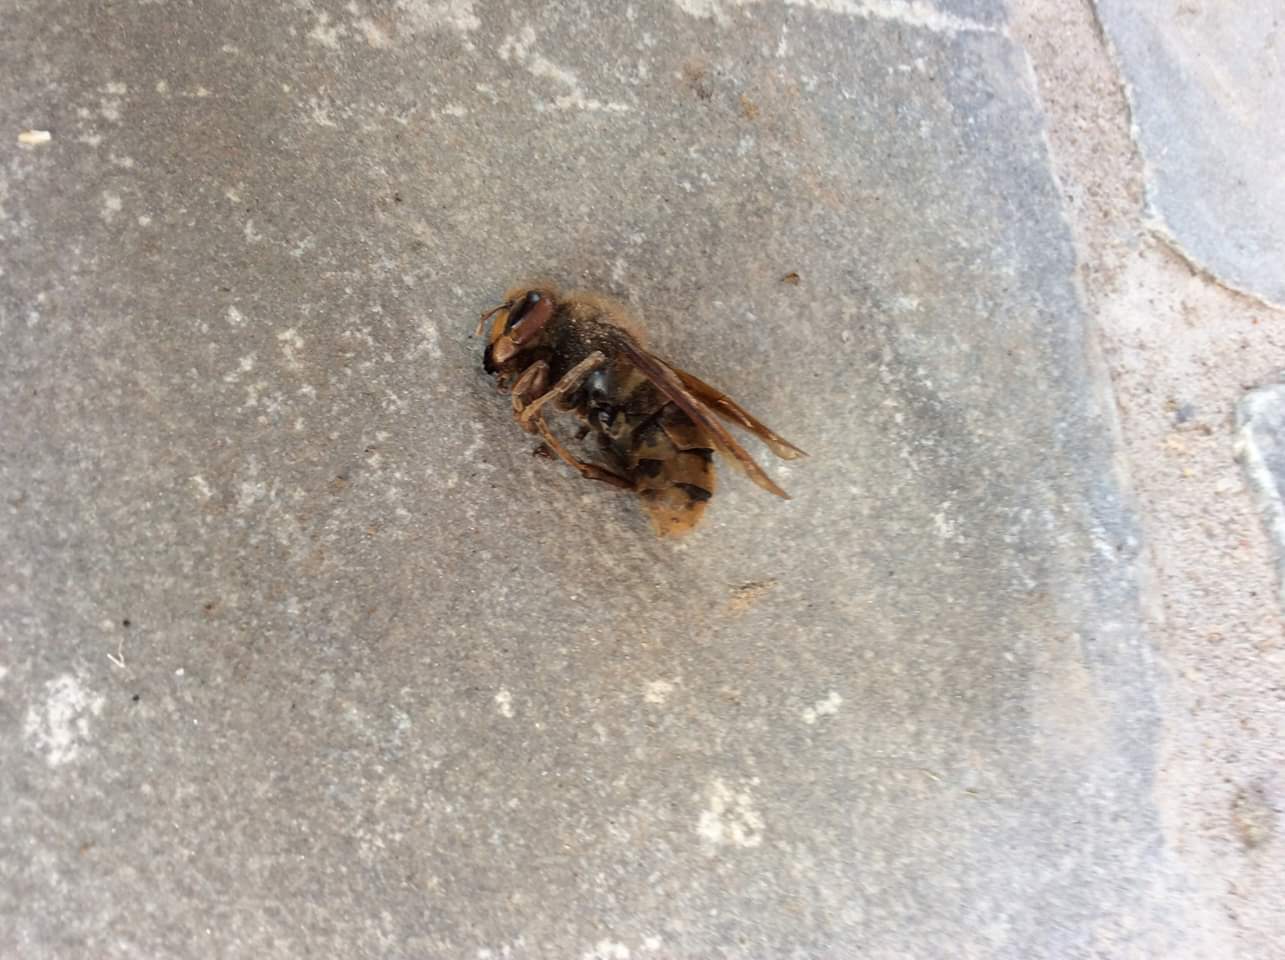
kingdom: Animalia
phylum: Arthropoda
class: Insecta
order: Hymenoptera
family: Vespidae
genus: Vespa
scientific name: Vespa crabro
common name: Hornet
